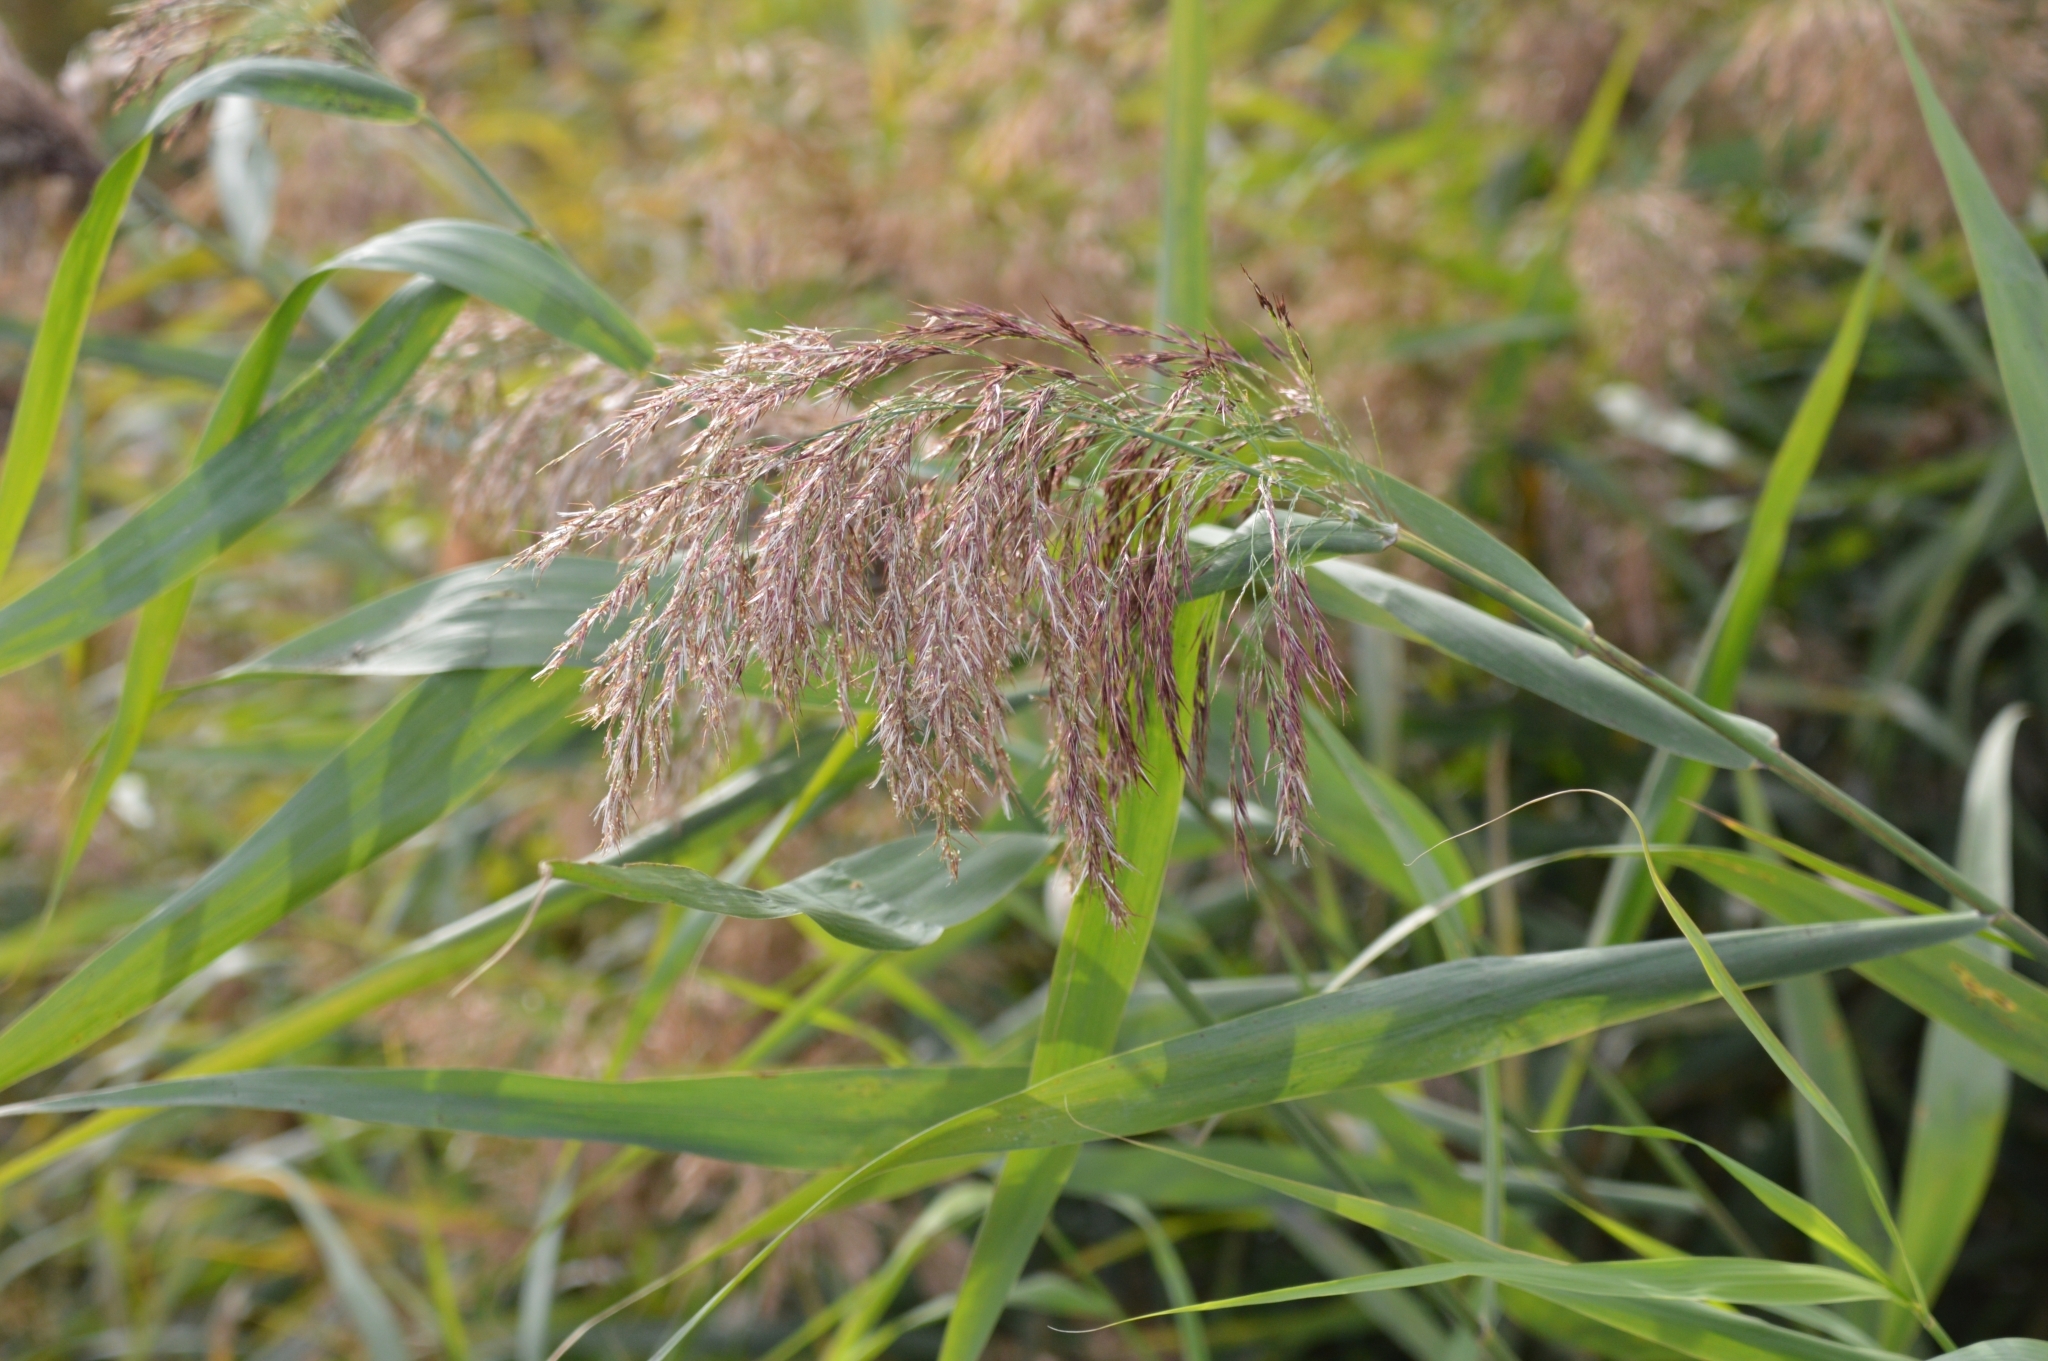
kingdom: Plantae
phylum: Tracheophyta
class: Liliopsida
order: Poales
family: Poaceae
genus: Phragmites
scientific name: Phragmites australis
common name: Common reed
